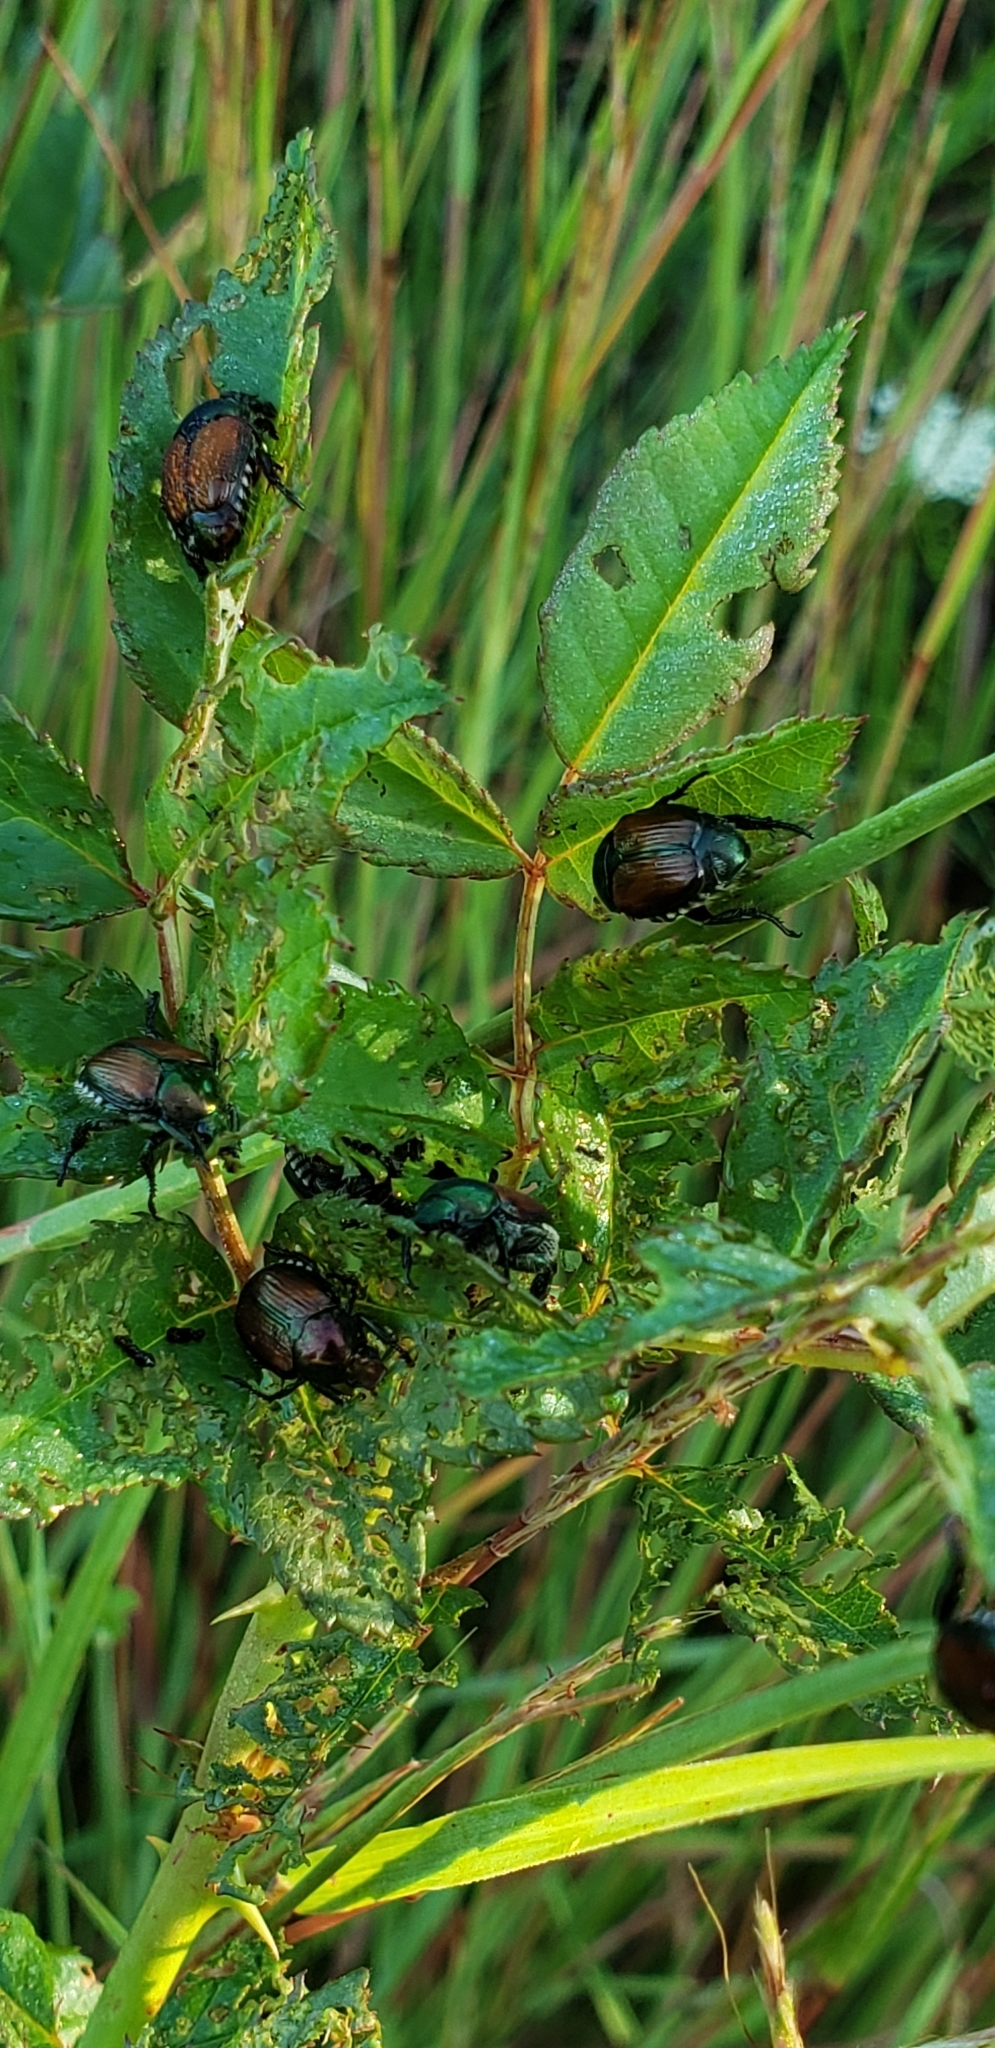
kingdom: Animalia
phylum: Arthropoda
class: Insecta
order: Coleoptera
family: Scarabaeidae
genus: Popillia
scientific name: Popillia japonica
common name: Japanese beetle
